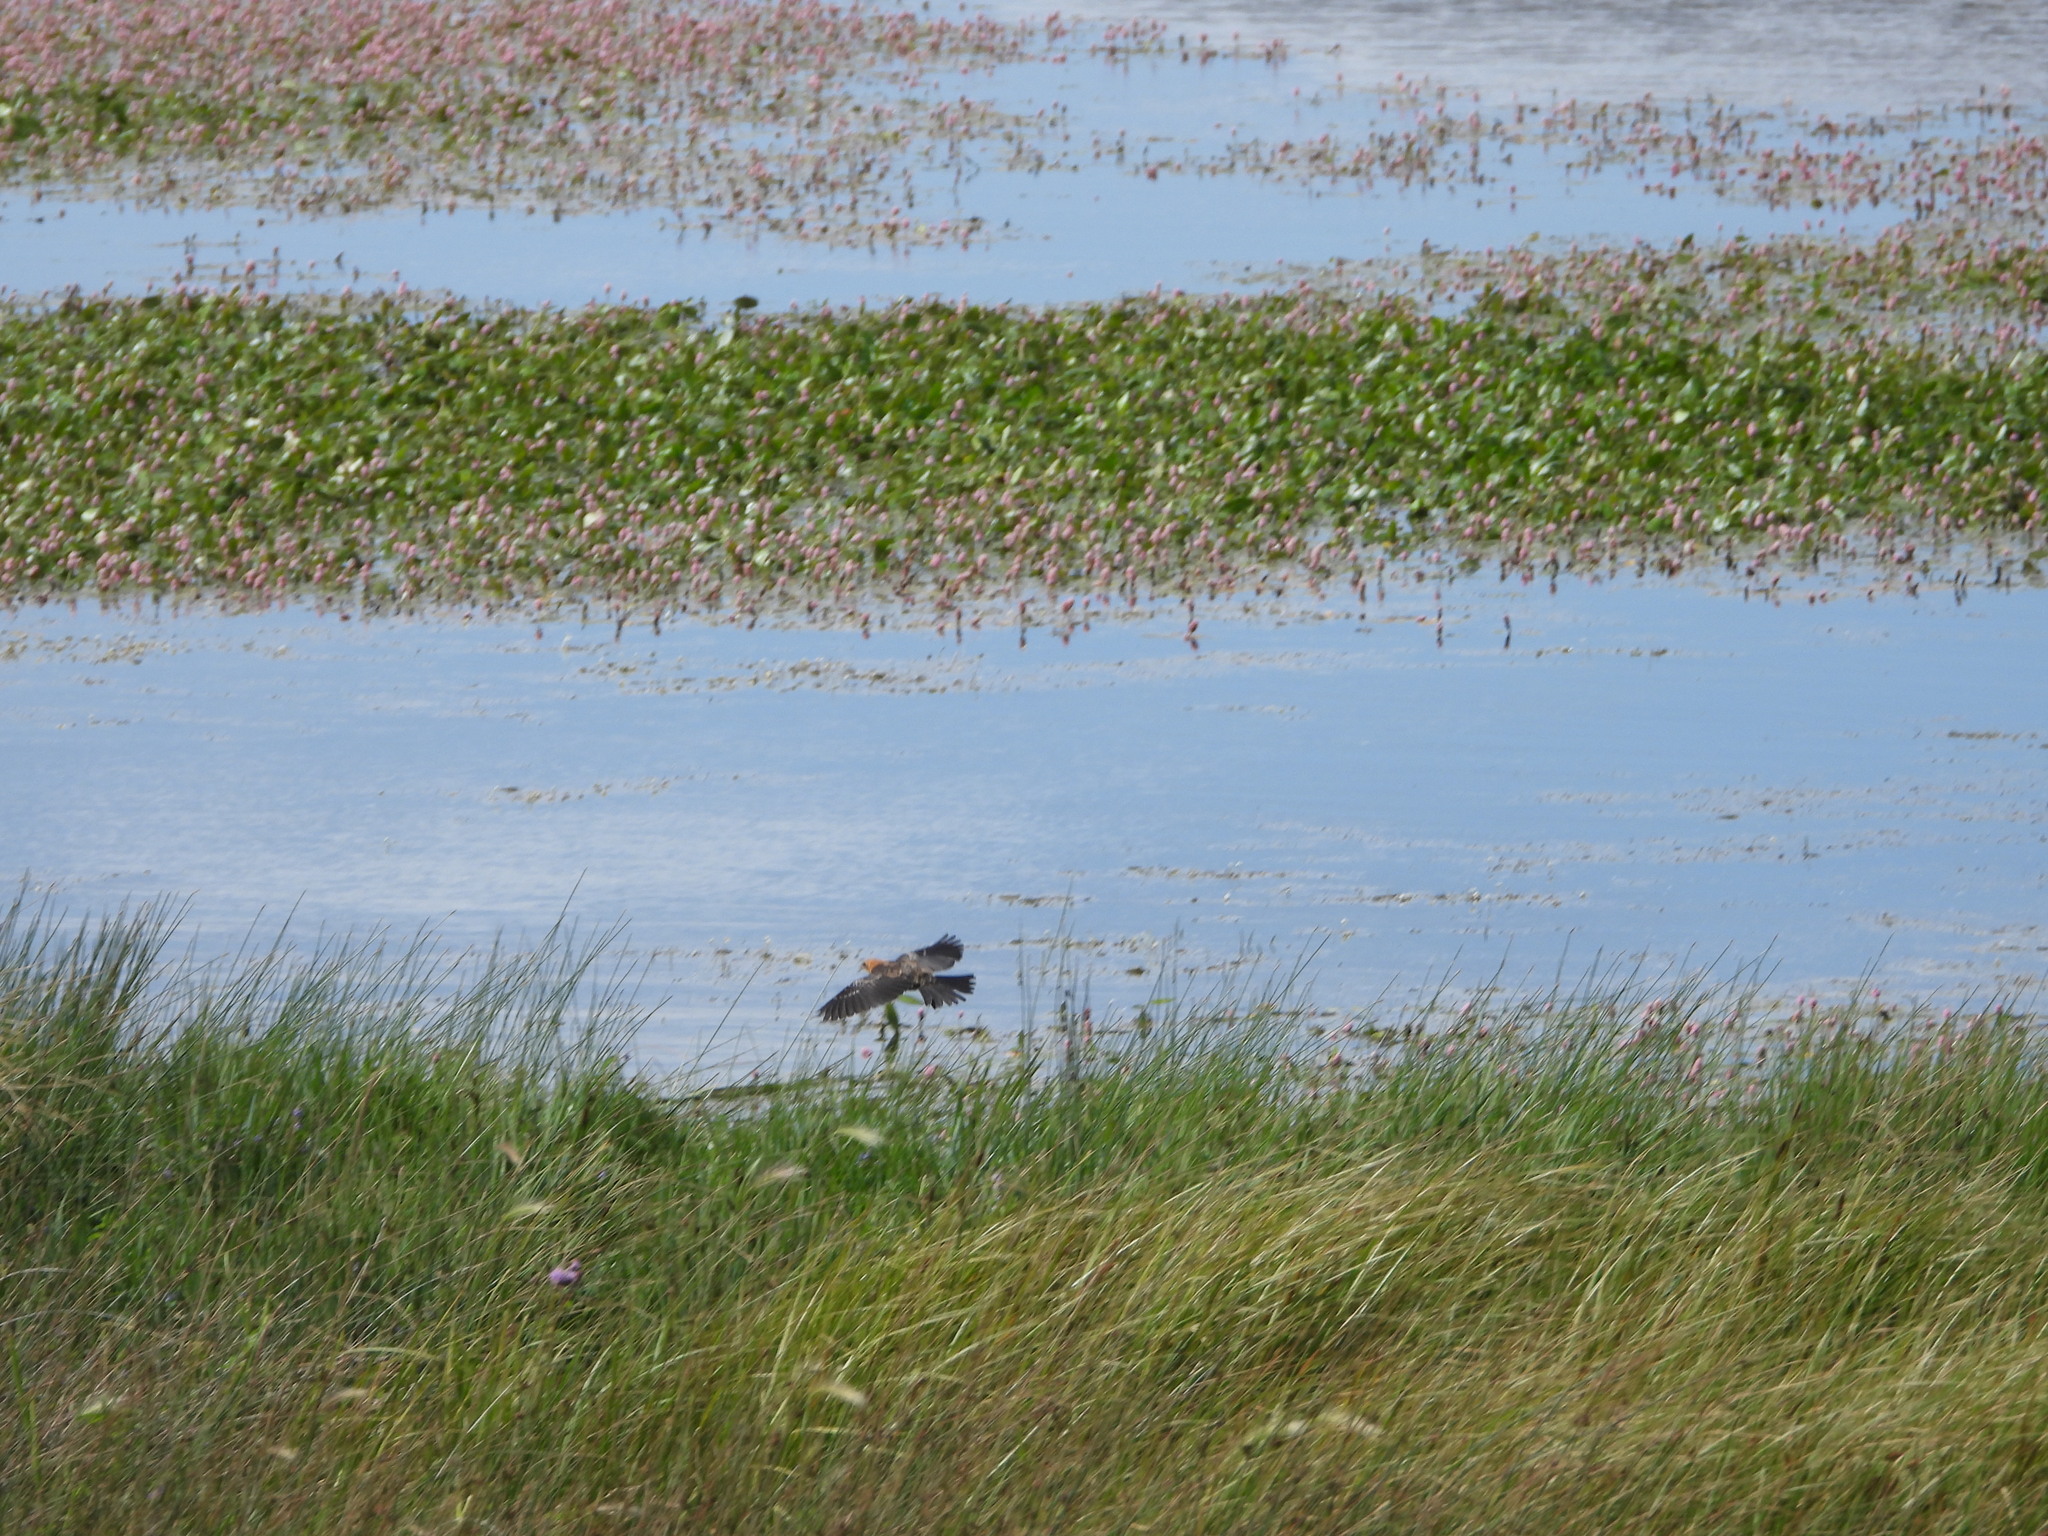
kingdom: Animalia
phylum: Chordata
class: Aves
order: Passeriformes
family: Icteridae
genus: Xanthocephalus
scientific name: Xanthocephalus xanthocephalus
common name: Yellow-headed blackbird
